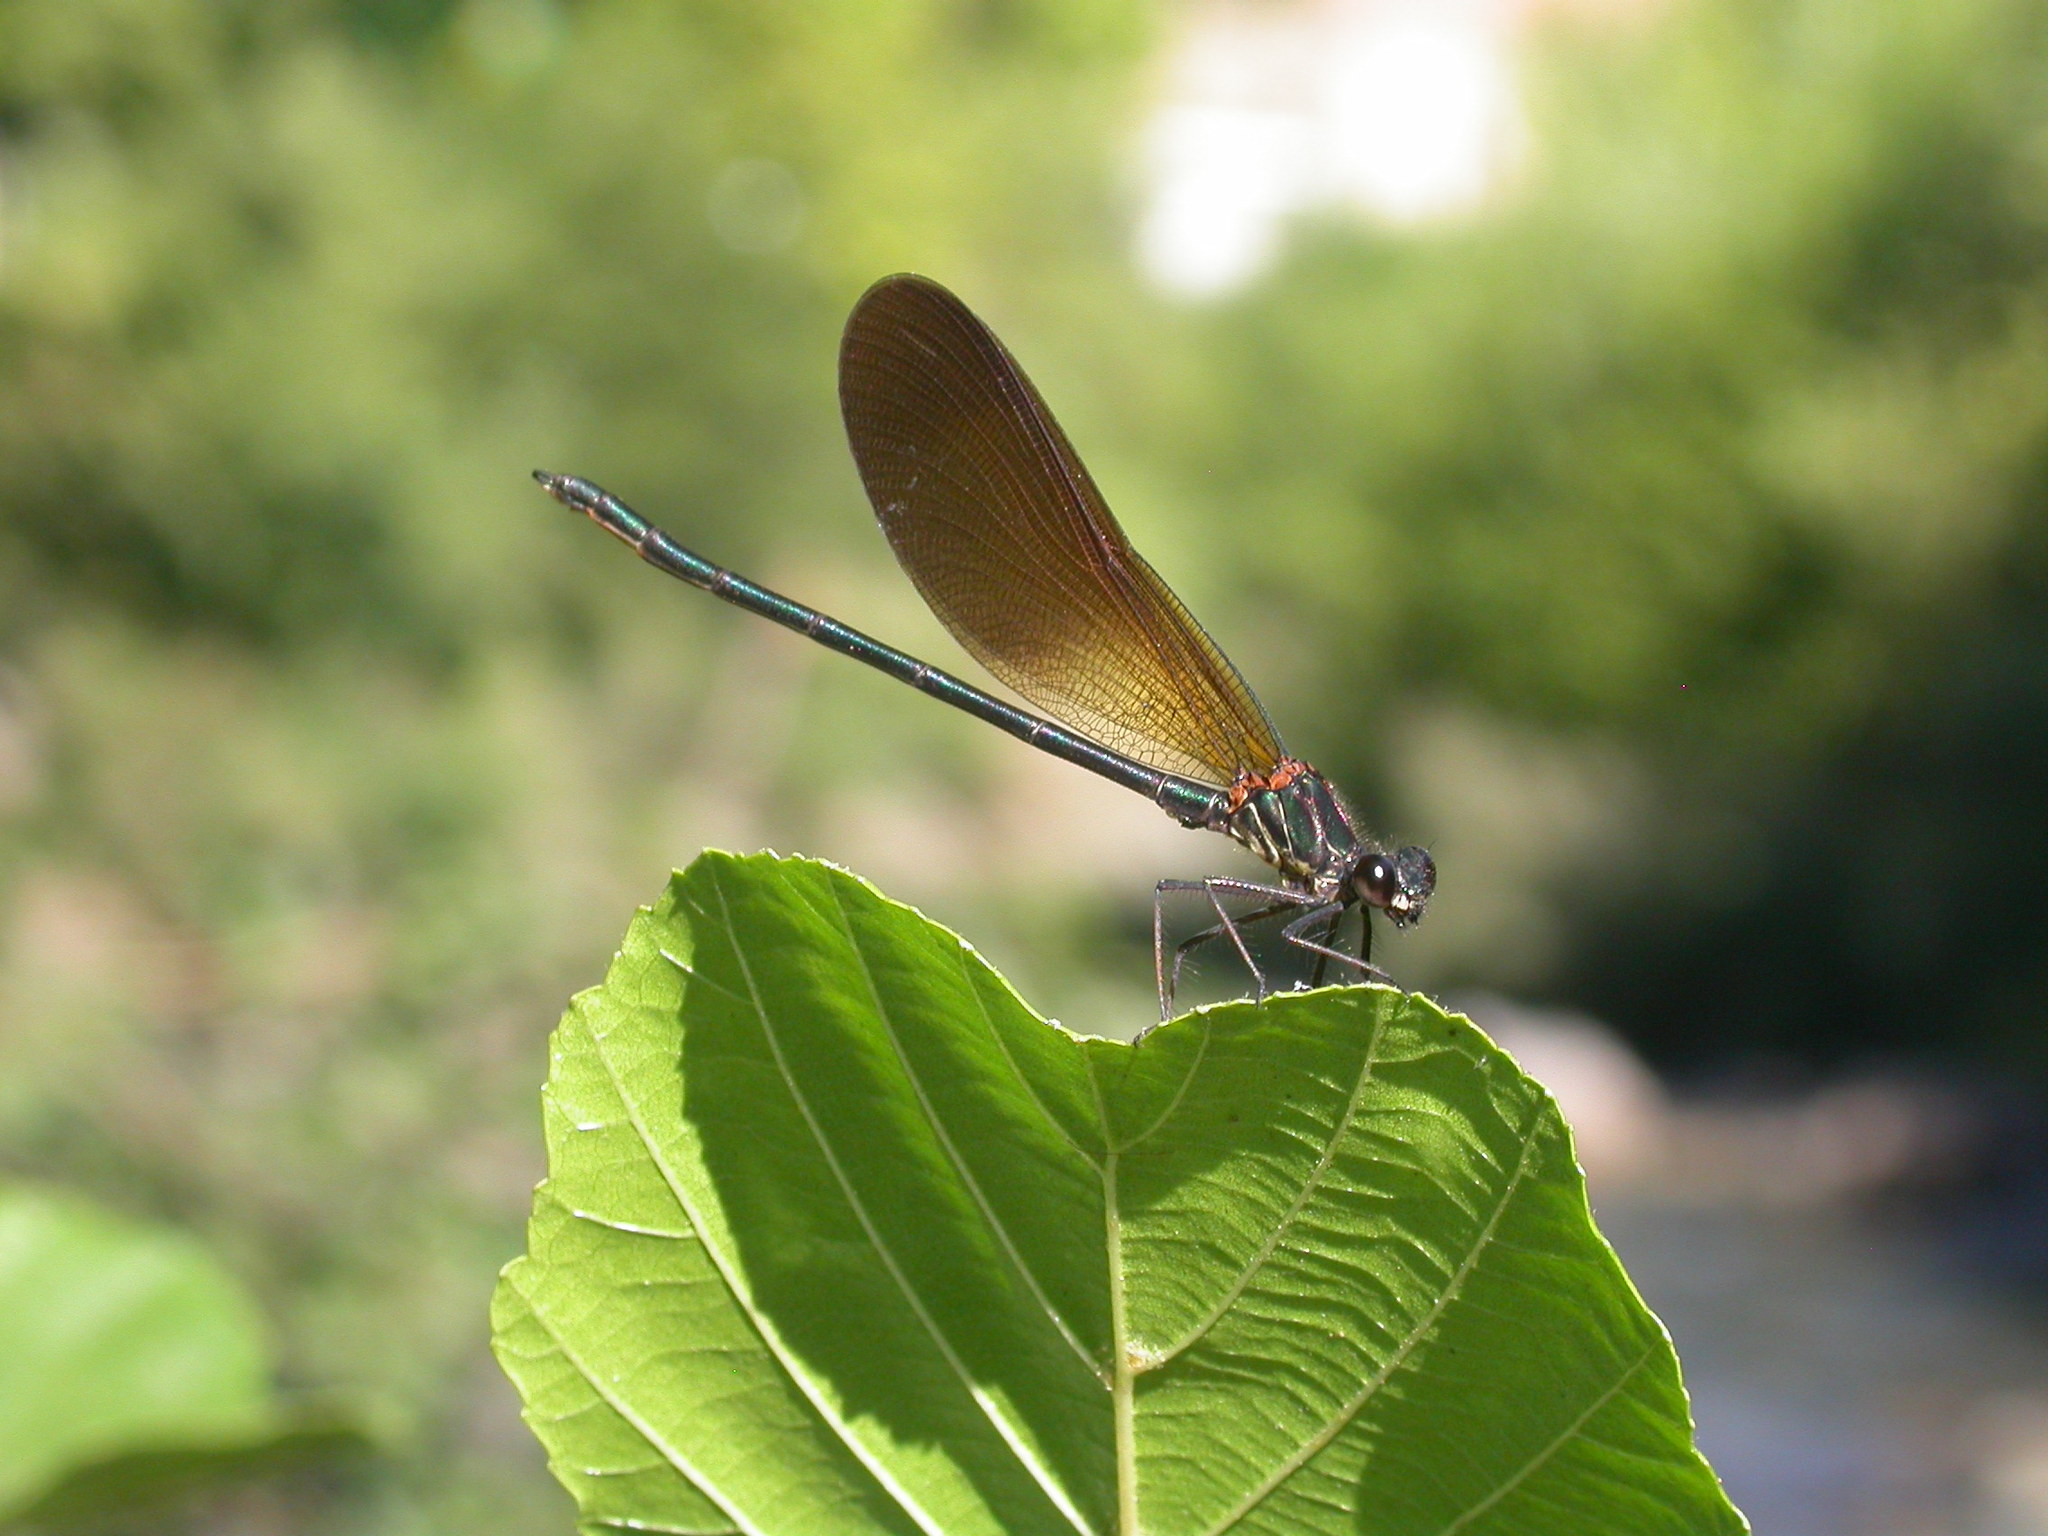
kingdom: Animalia
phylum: Arthropoda
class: Insecta
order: Odonata
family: Calopterygidae
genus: Calopteryx
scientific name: Calopteryx haemorrhoidalis
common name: Copper demoiselle
